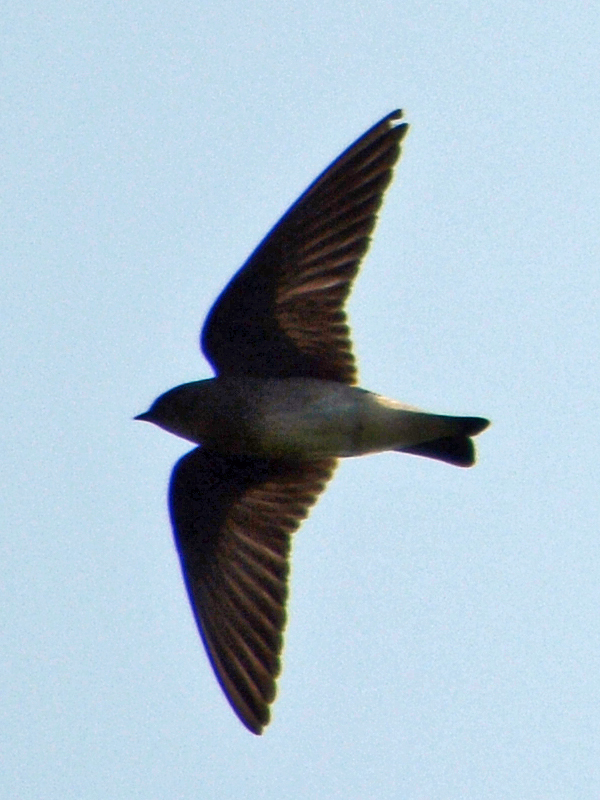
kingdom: Animalia
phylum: Chordata
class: Aves
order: Passeriformes
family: Hirundinidae
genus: Stelgidopteryx
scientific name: Stelgidopteryx serripennis
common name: Northern rough-winged swallow
